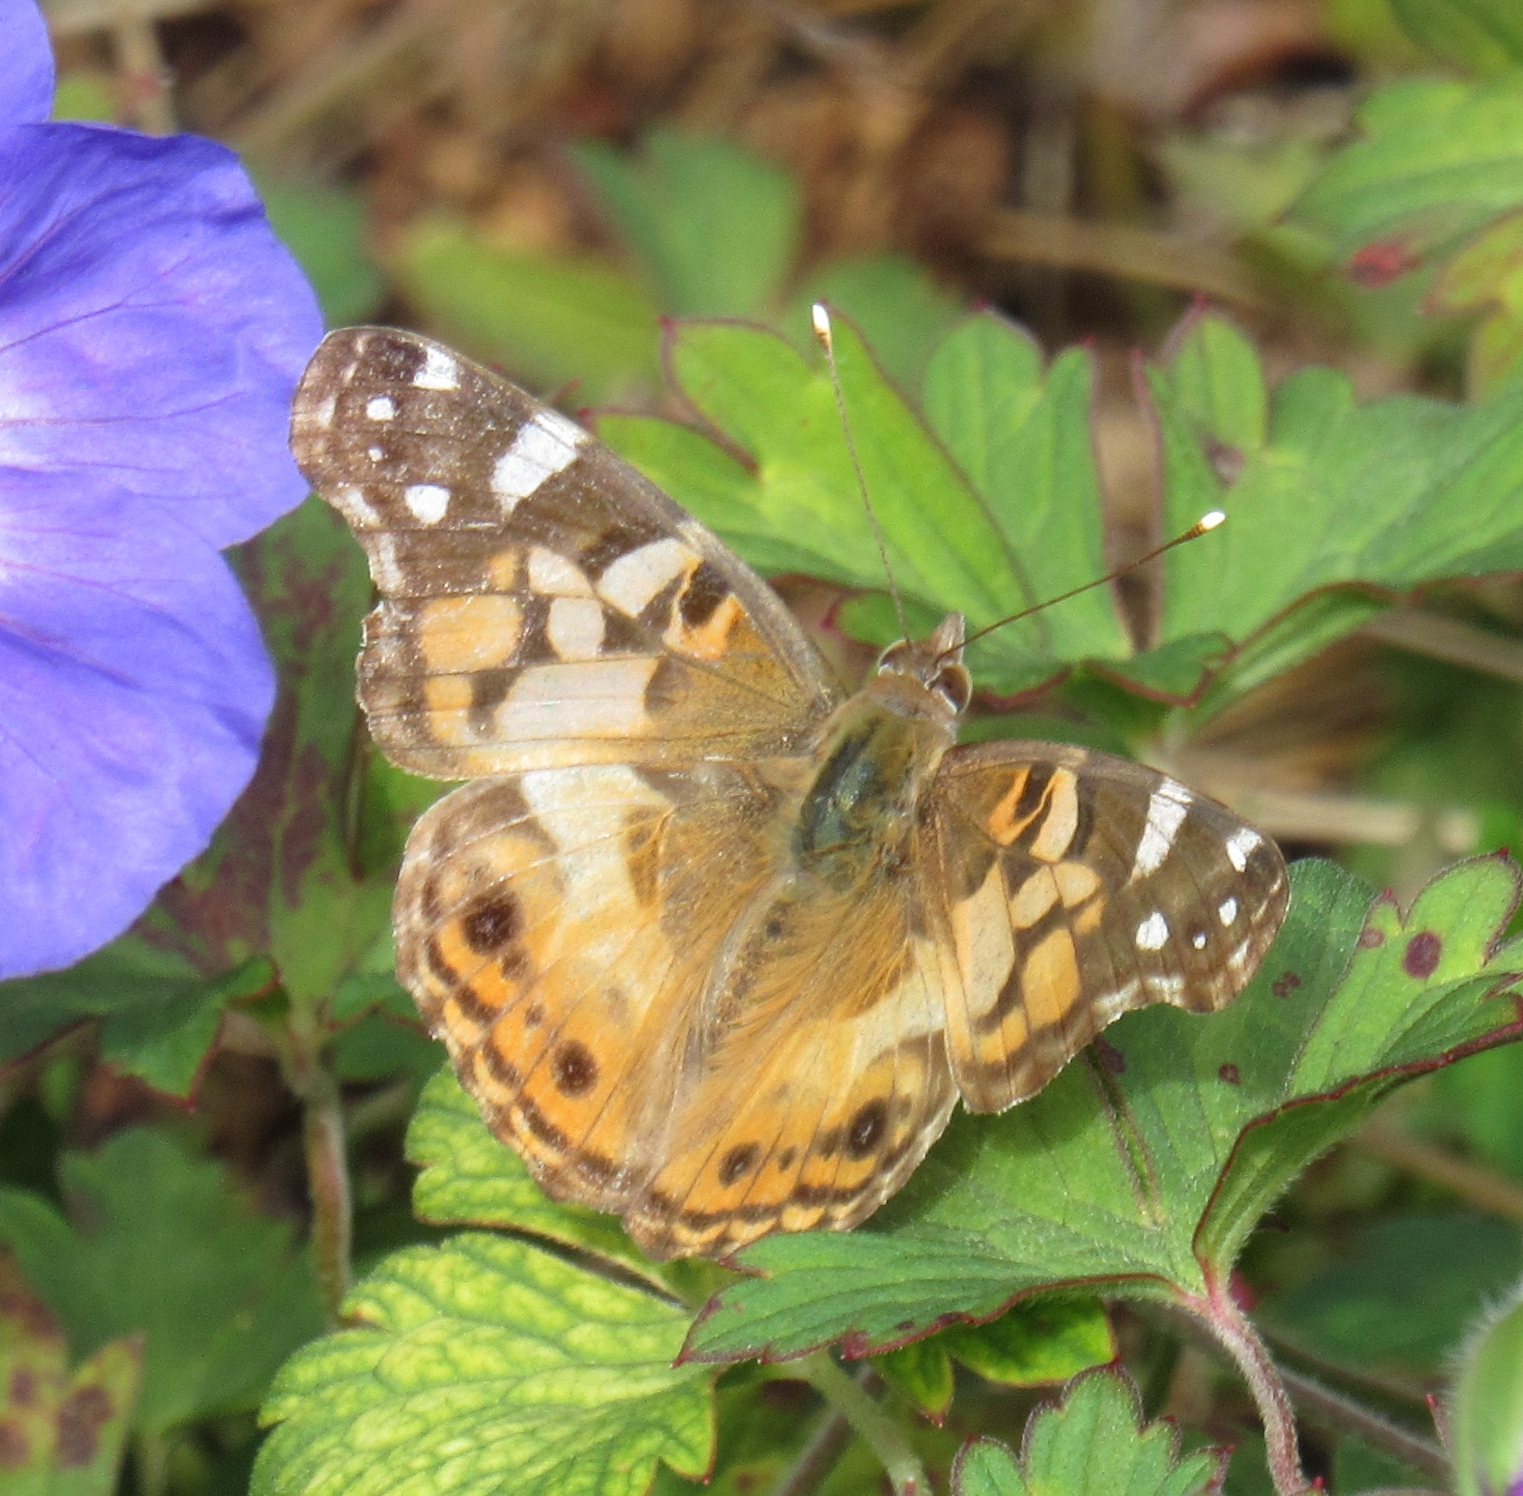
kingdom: Animalia
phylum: Arthropoda
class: Insecta
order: Lepidoptera
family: Nymphalidae
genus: Vanessa
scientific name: Vanessa virginiensis
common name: American lady
